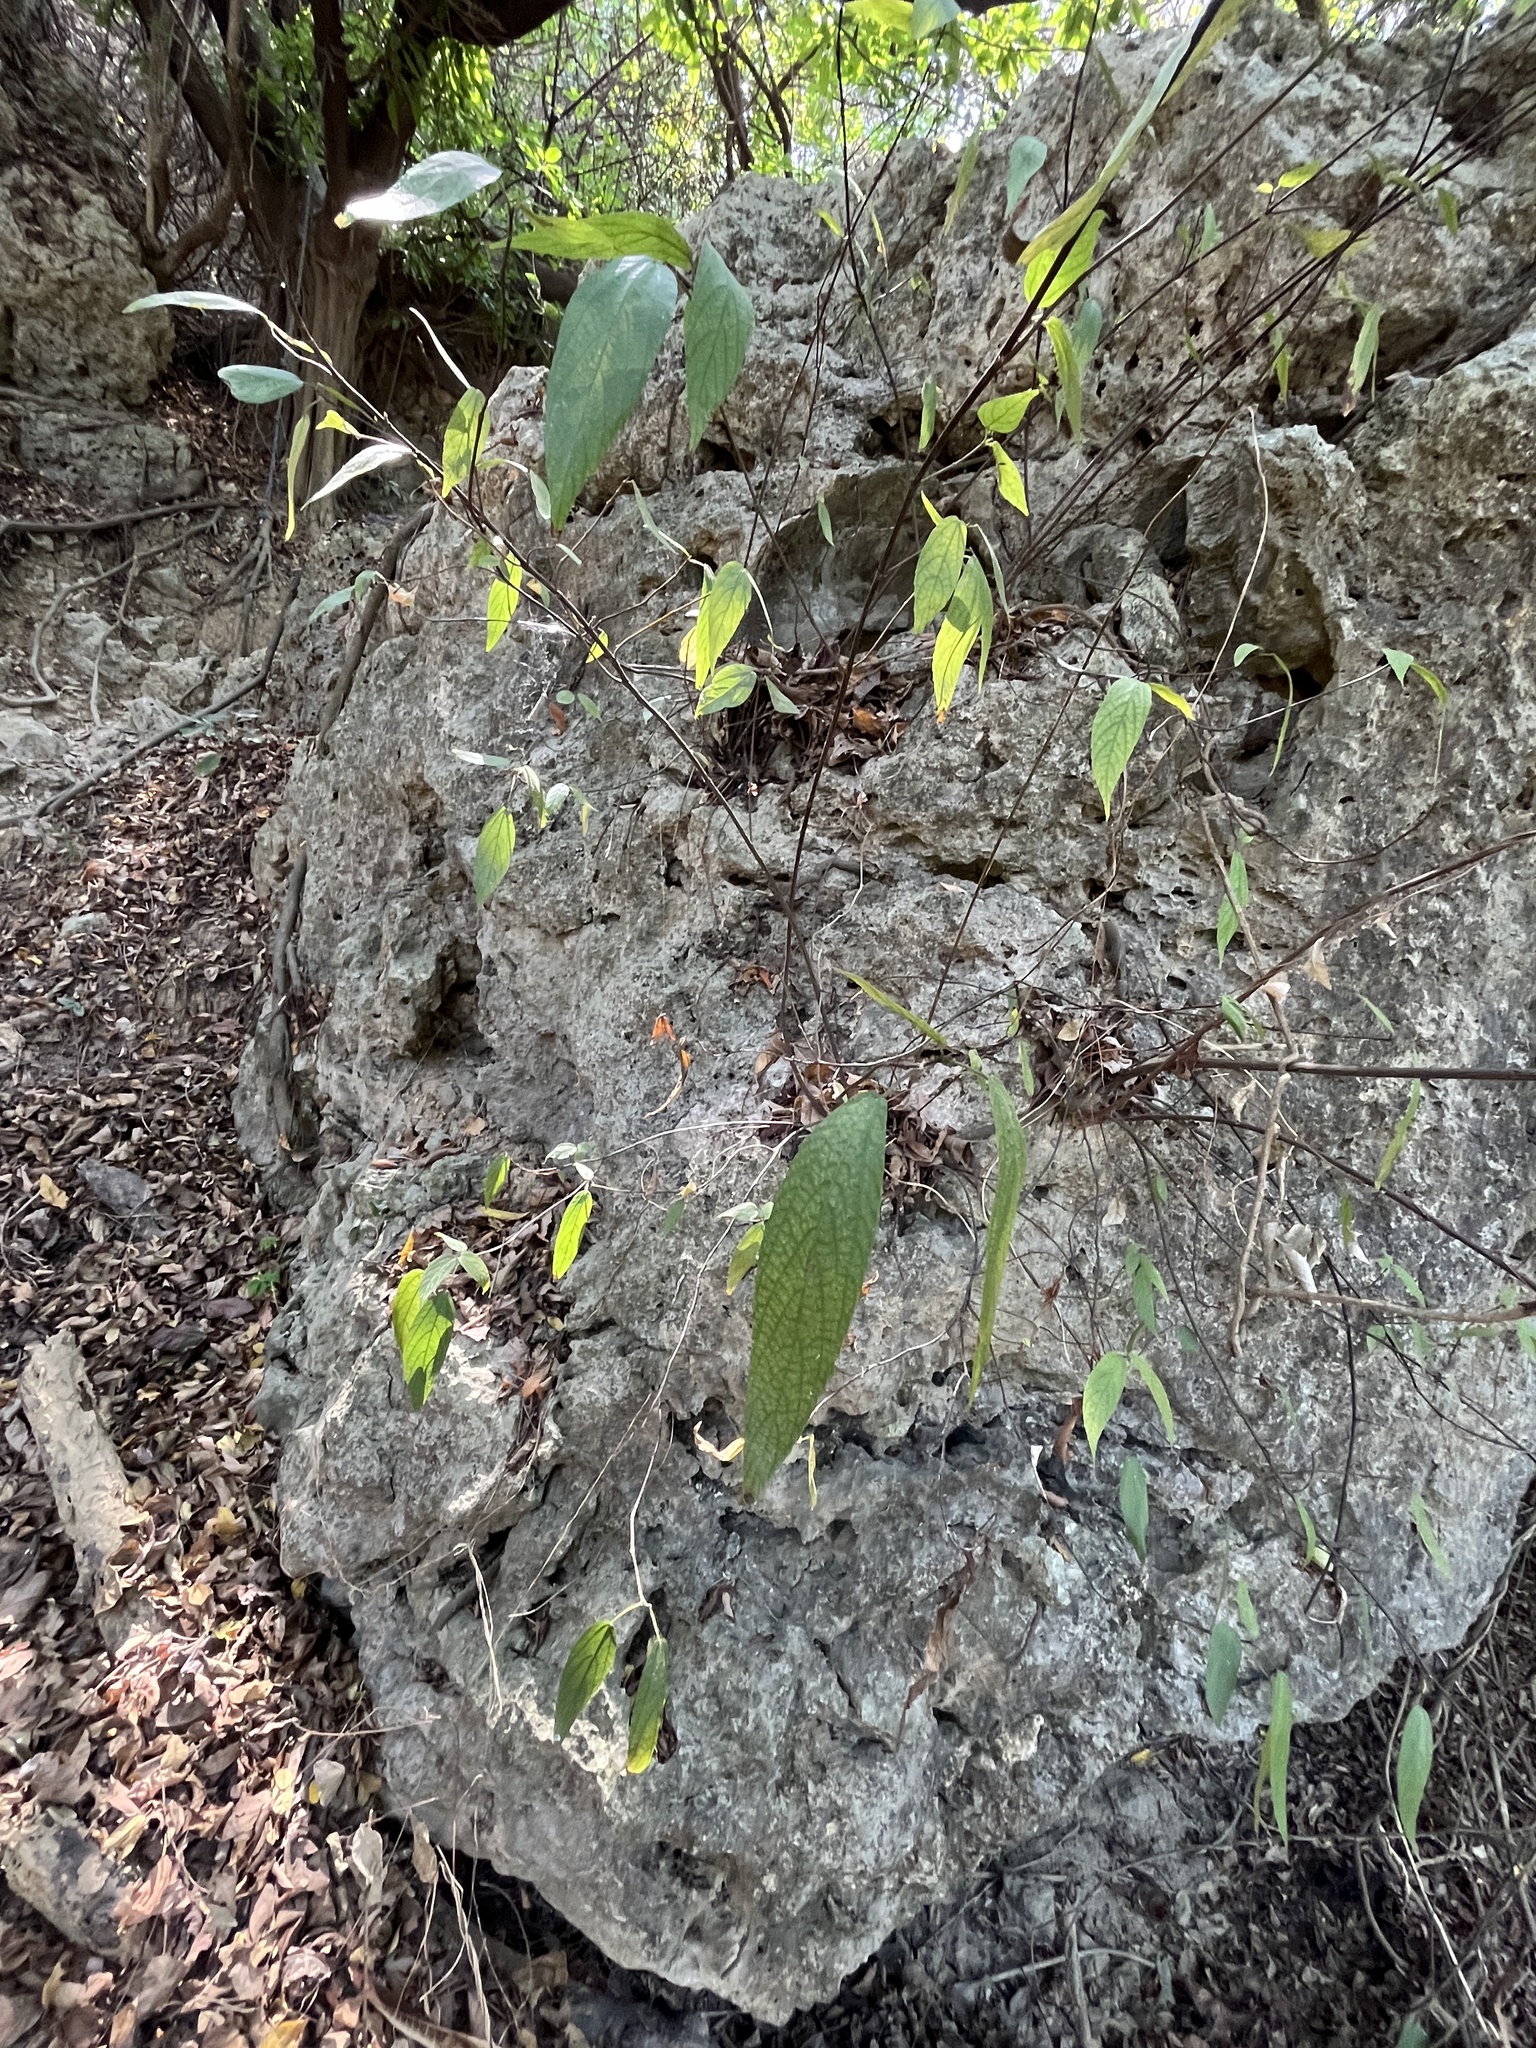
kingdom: Plantae
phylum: Tracheophyta
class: Magnoliopsida
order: Rosales
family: Urticaceae
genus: Boehmeria
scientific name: Boehmeria zollingeriana
